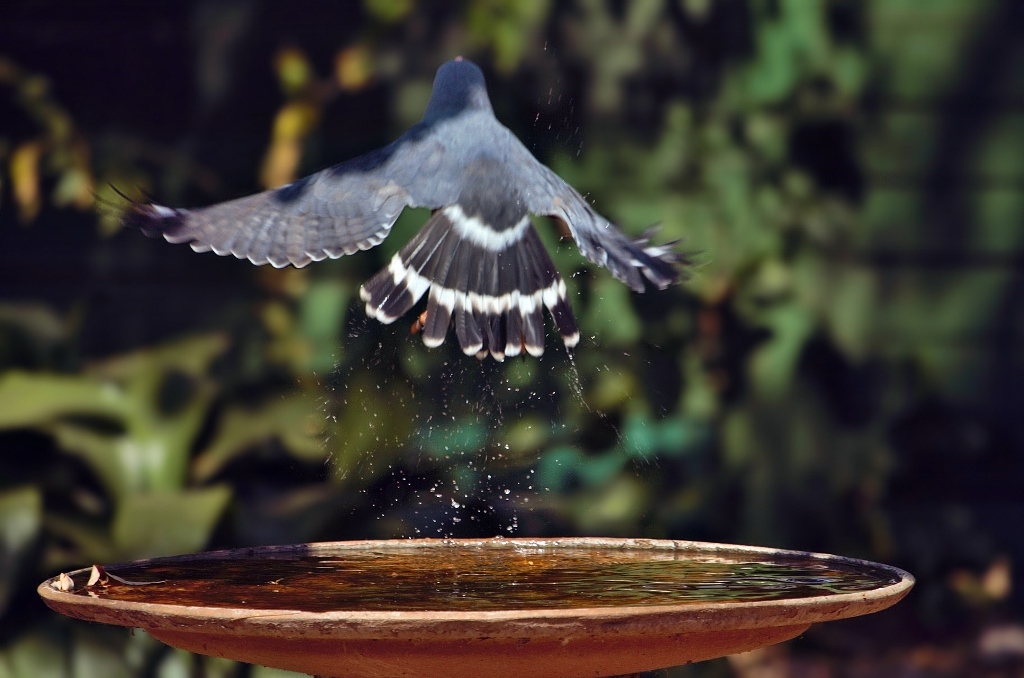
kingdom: Animalia
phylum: Chordata
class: Aves
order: Accipitriformes
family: Accipitridae
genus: Kaupifalco
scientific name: Kaupifalco monogrammicus
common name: Lizard buzzard
